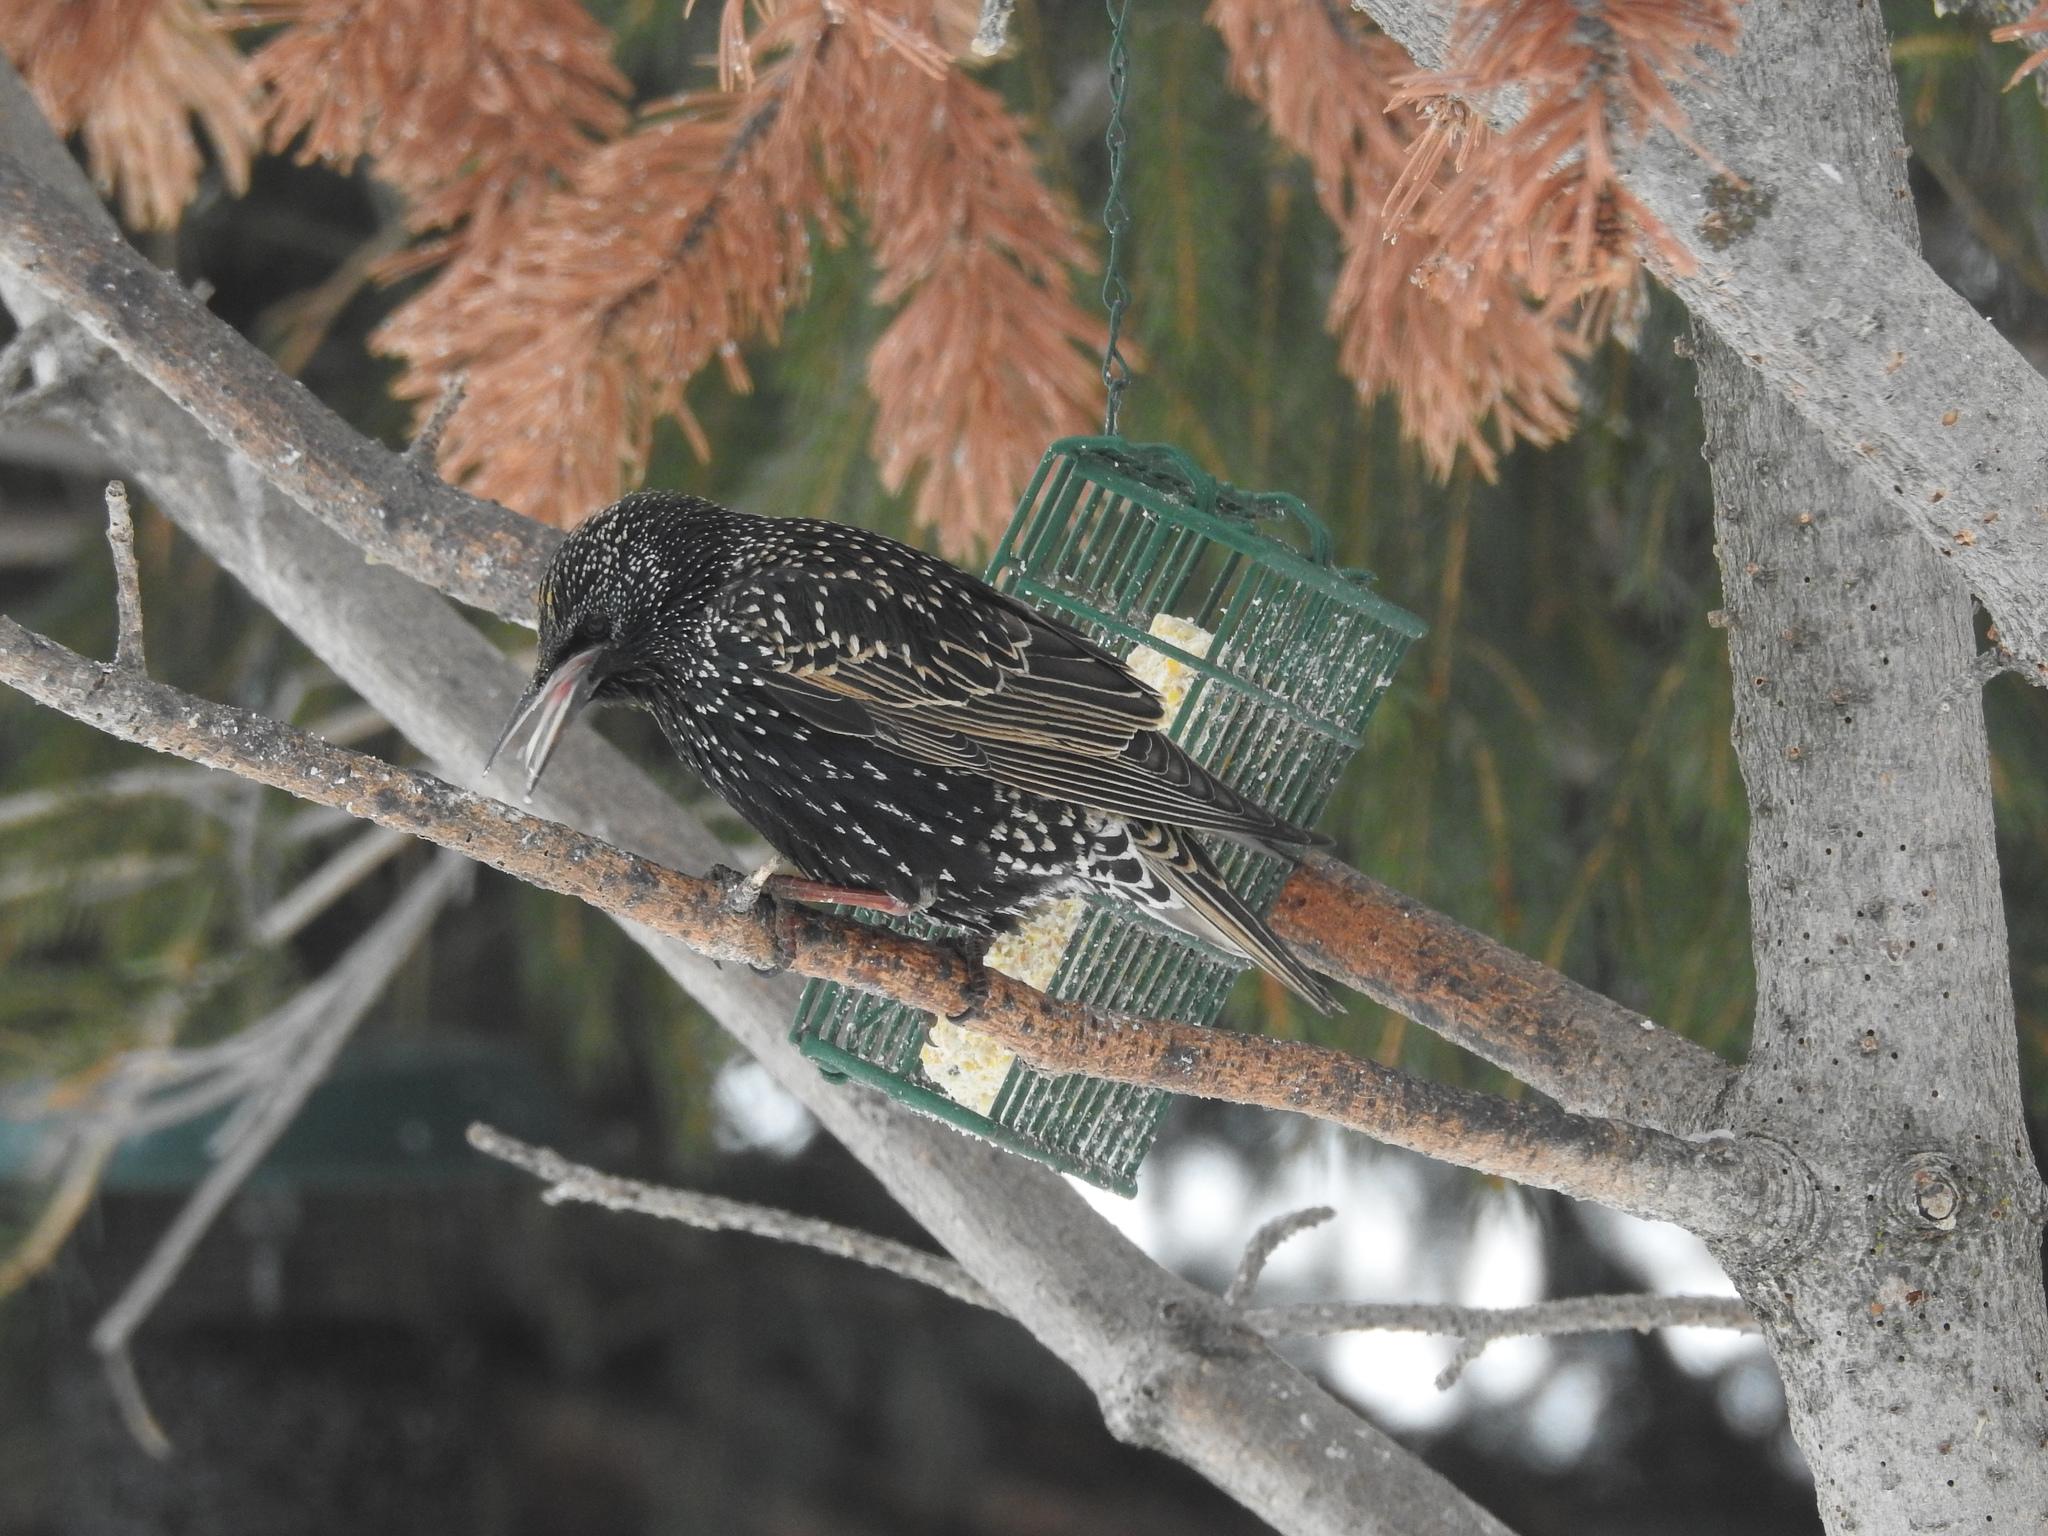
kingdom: Animalia
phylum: Chordata
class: Aves
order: Passeriformes
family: Sturnidae
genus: Sturnus
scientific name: Sturnus vulgaris
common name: Common starling
